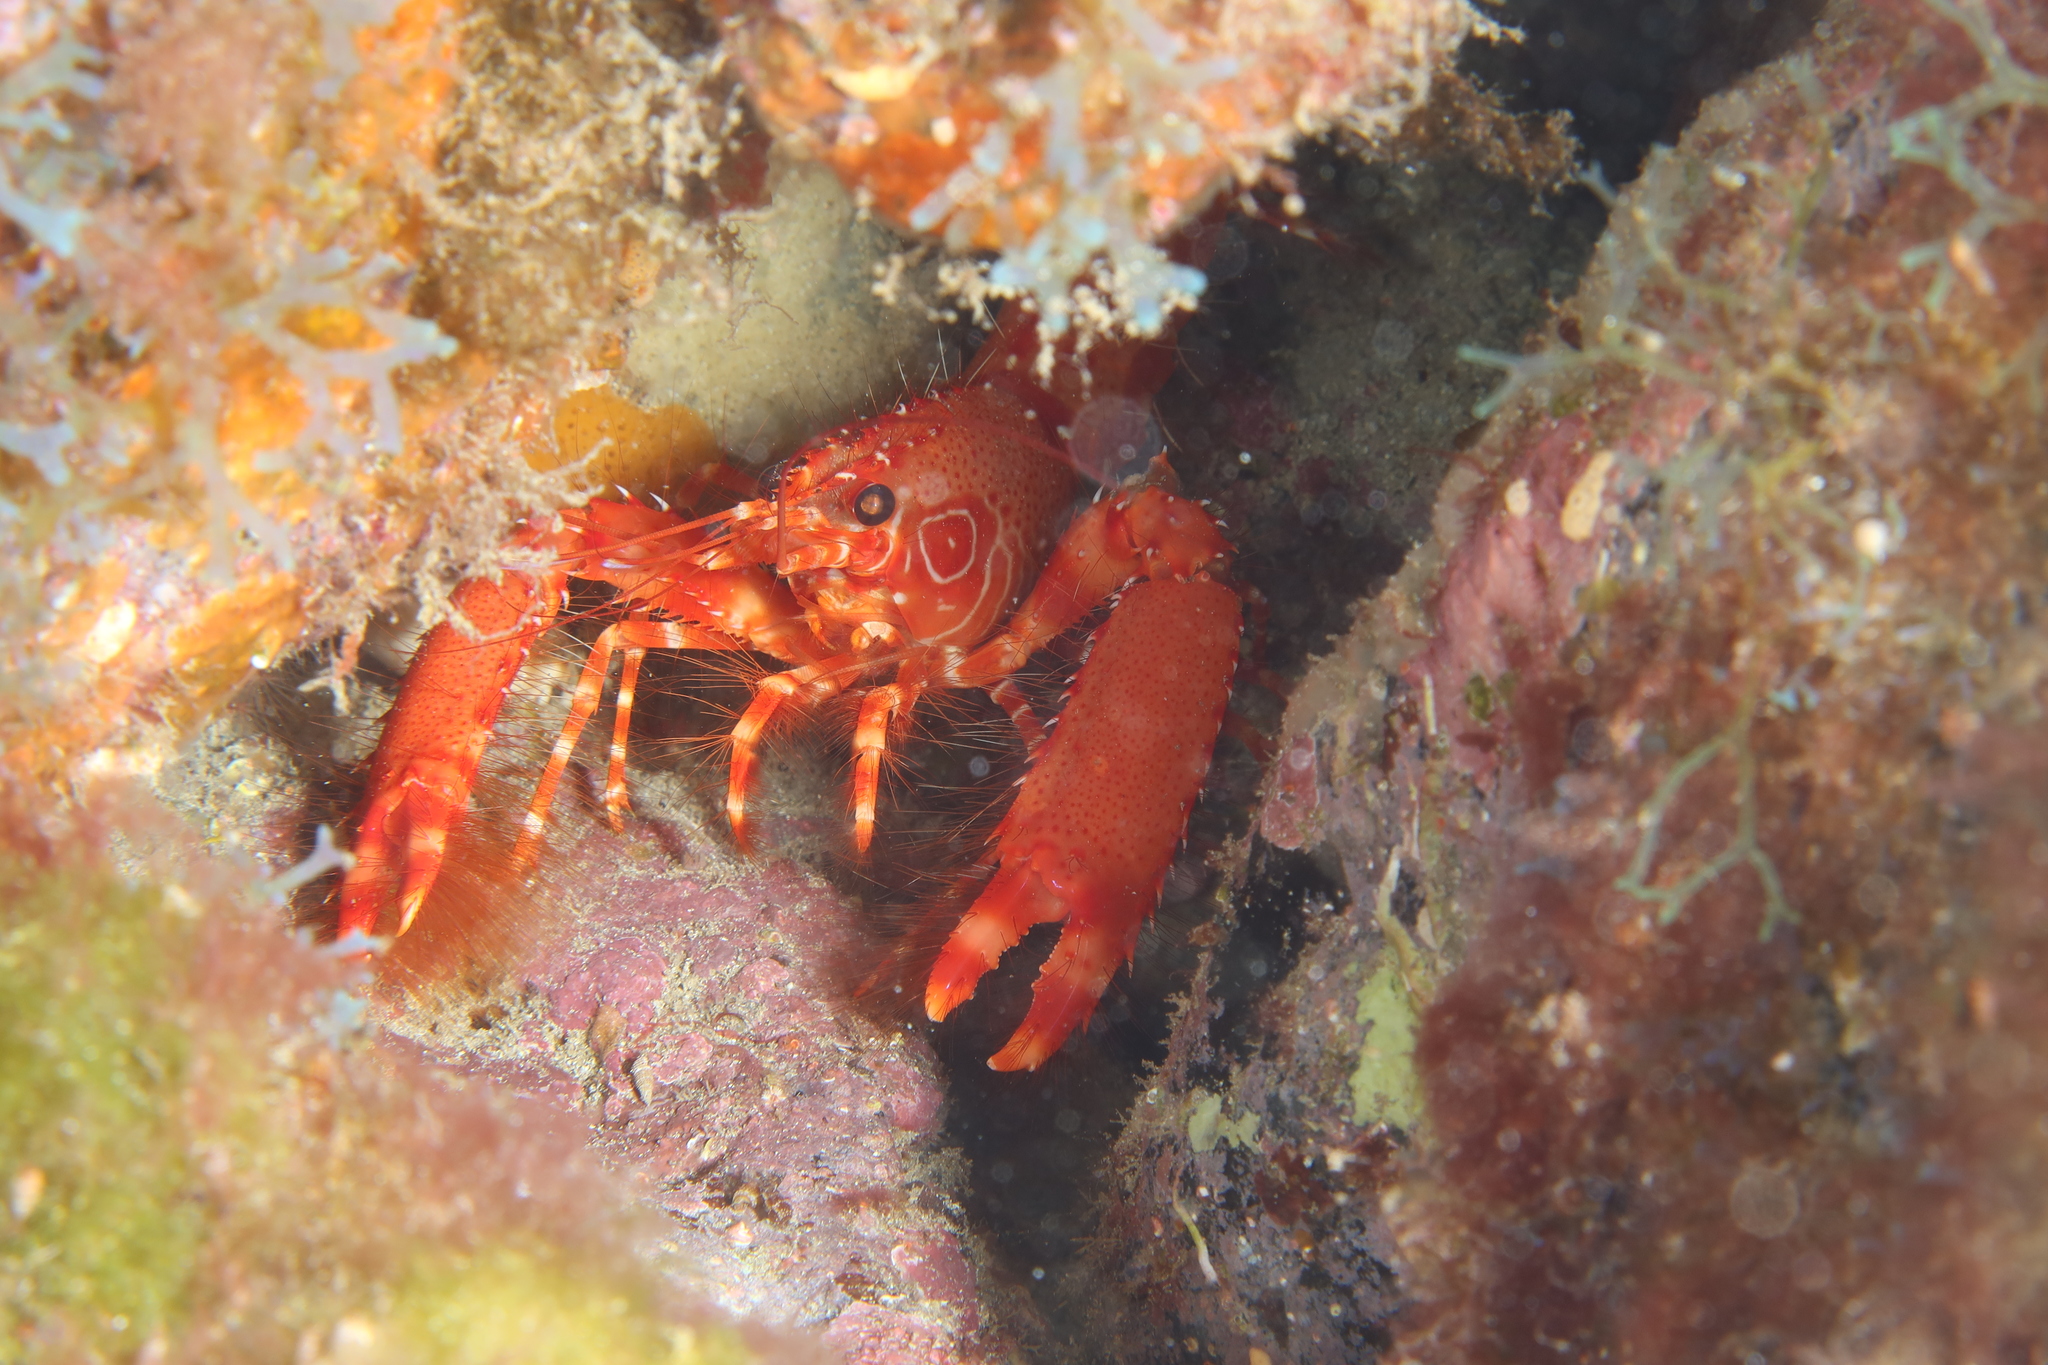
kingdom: Animalia
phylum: Arthropoda
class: Malacostraca
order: Decapoda
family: Enoplometopidae
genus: Enoplometopus
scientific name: Enoplometopus antillensis
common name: Dwarf reef lobster
